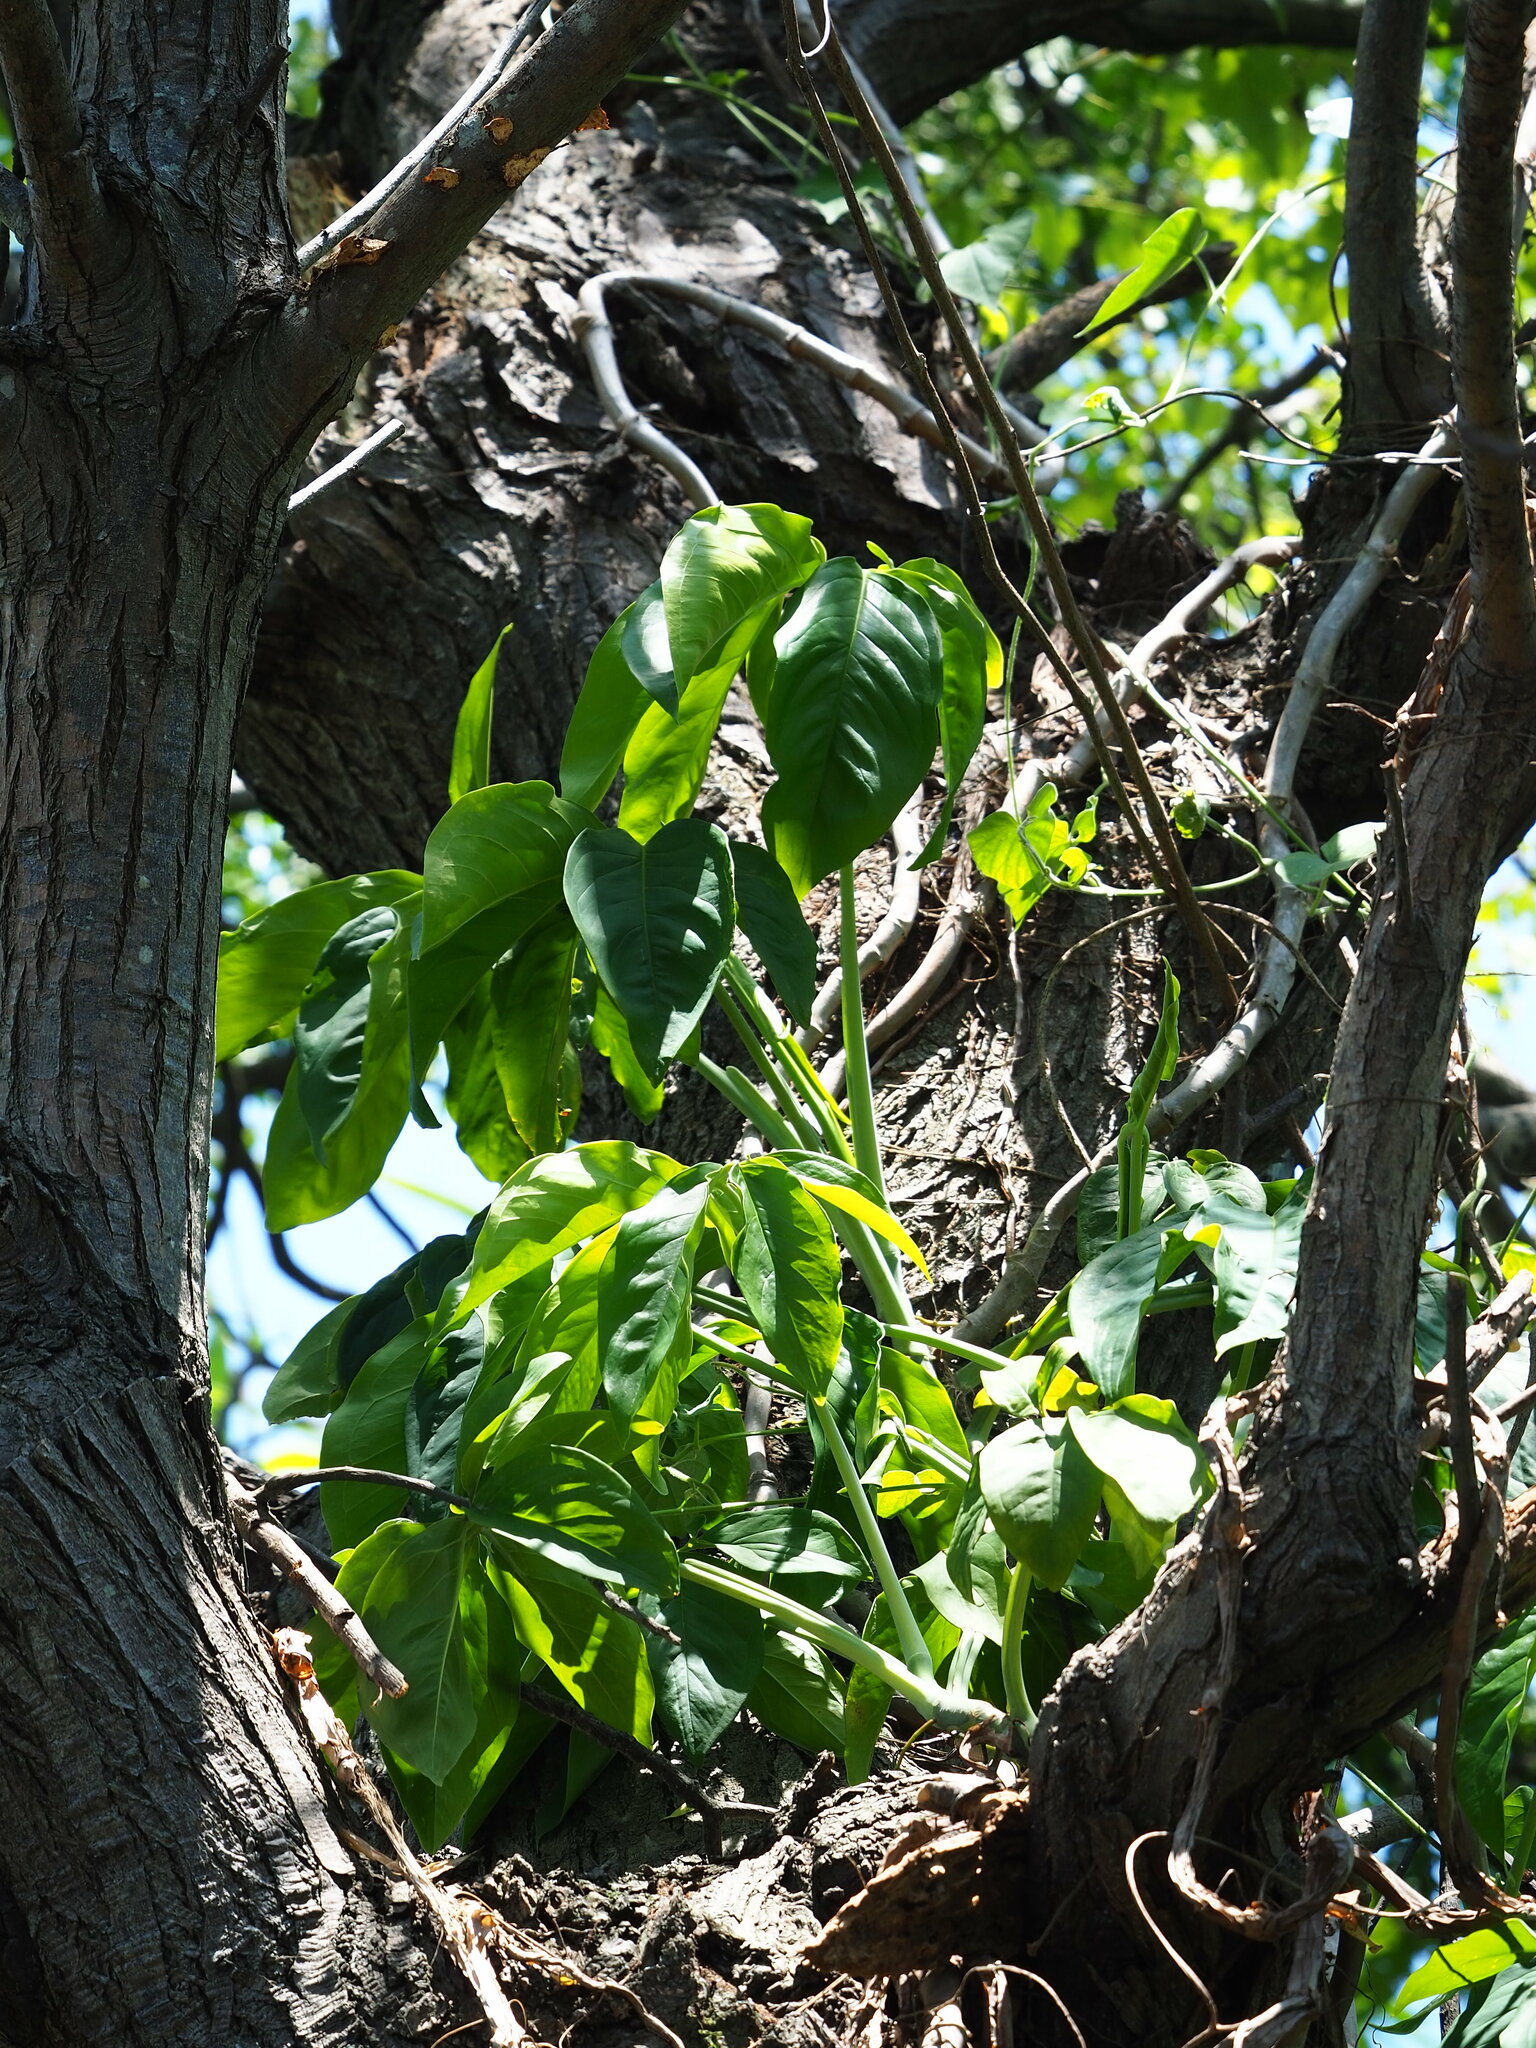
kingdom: Plantae
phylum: Tracheophyta
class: Liliopsida
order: Alismatales
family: Araceae
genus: Syngonium
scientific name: Syngonium angustatum
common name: Fivefingers
